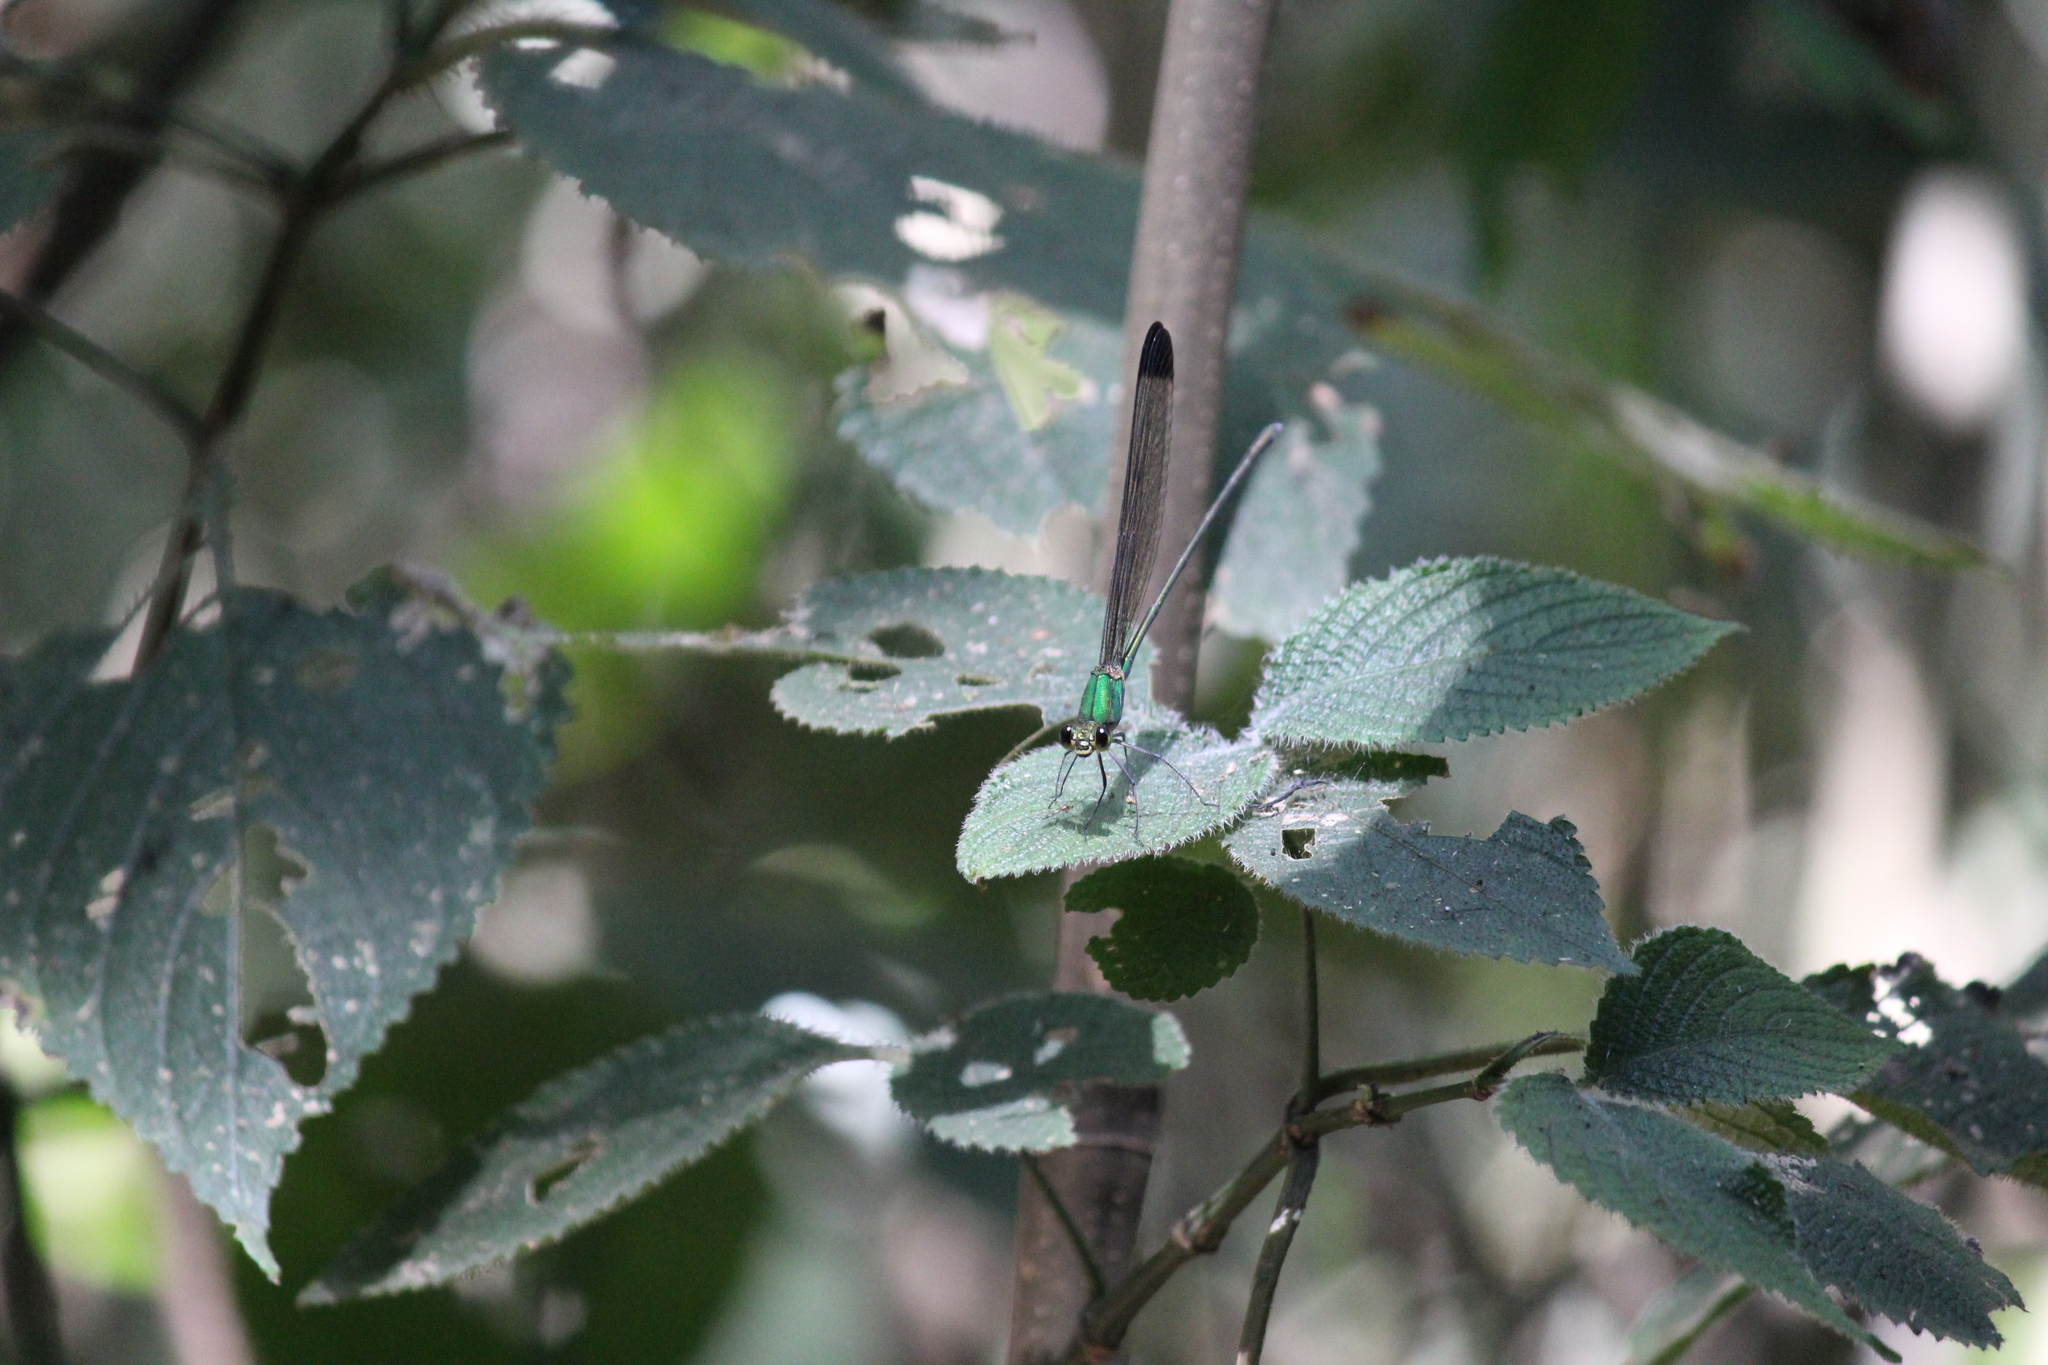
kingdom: Animalia
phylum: Arthropoda
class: Insecta
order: Odonata
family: Calopterygidae
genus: Vestalis
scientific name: Vestalis apicalis
